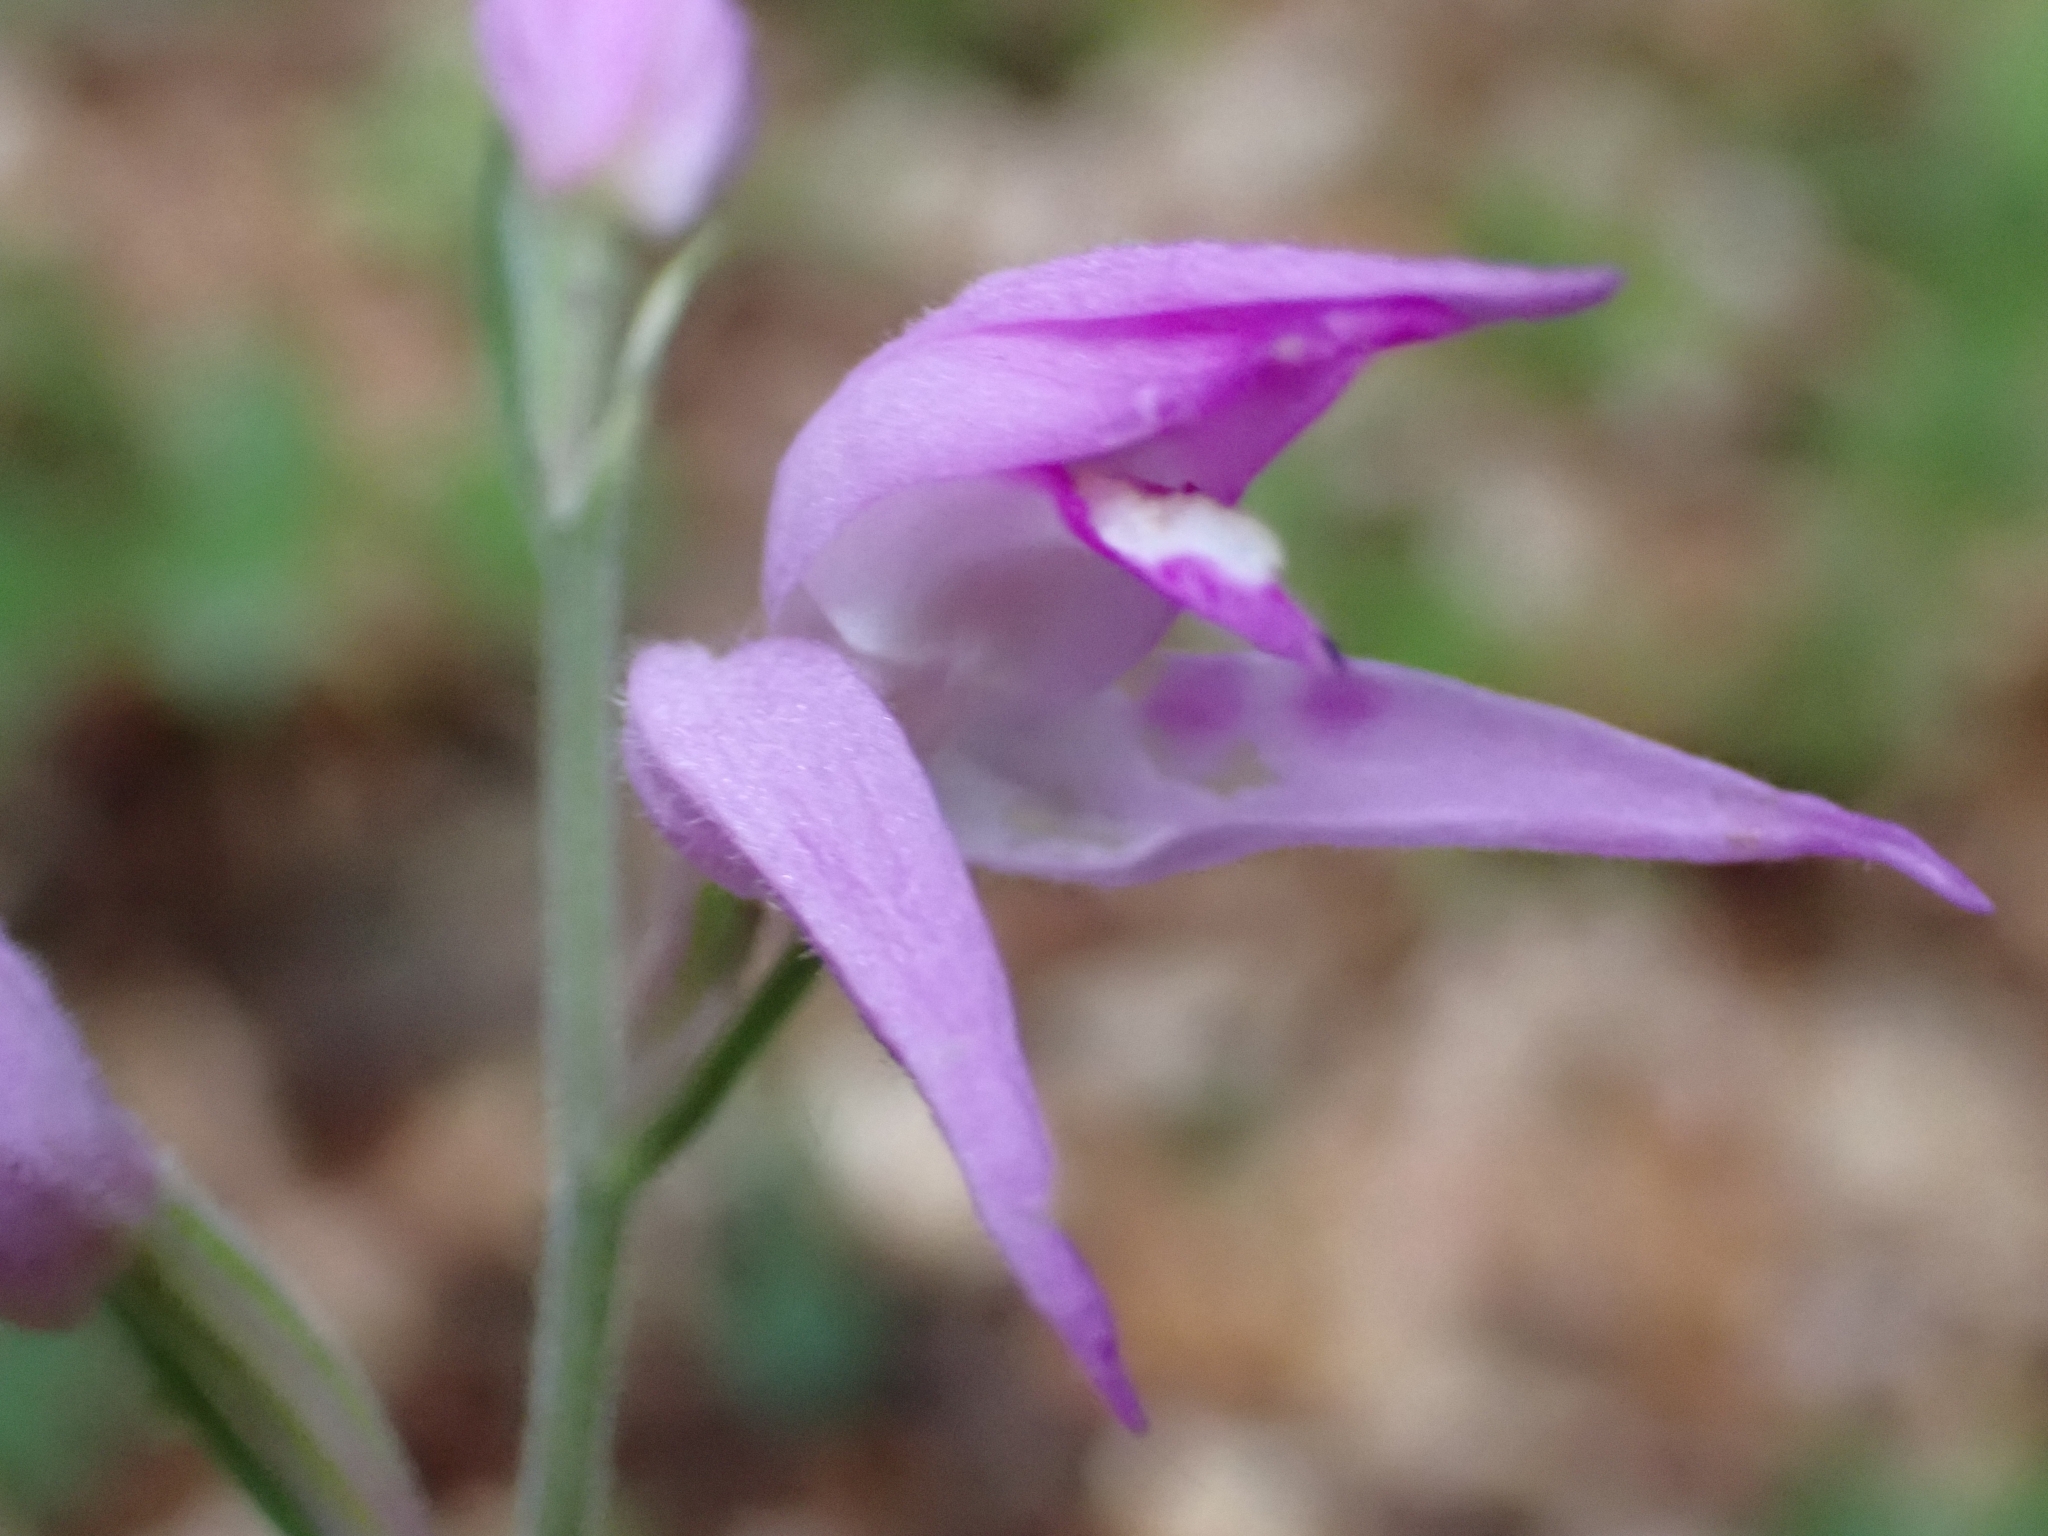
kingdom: Plantae
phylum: Tracheophyta
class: Liliopsida
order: Asparagales
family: Orchidaceae
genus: Cephalanthera
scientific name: Cephalanthera rubra
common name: Red helleborine
